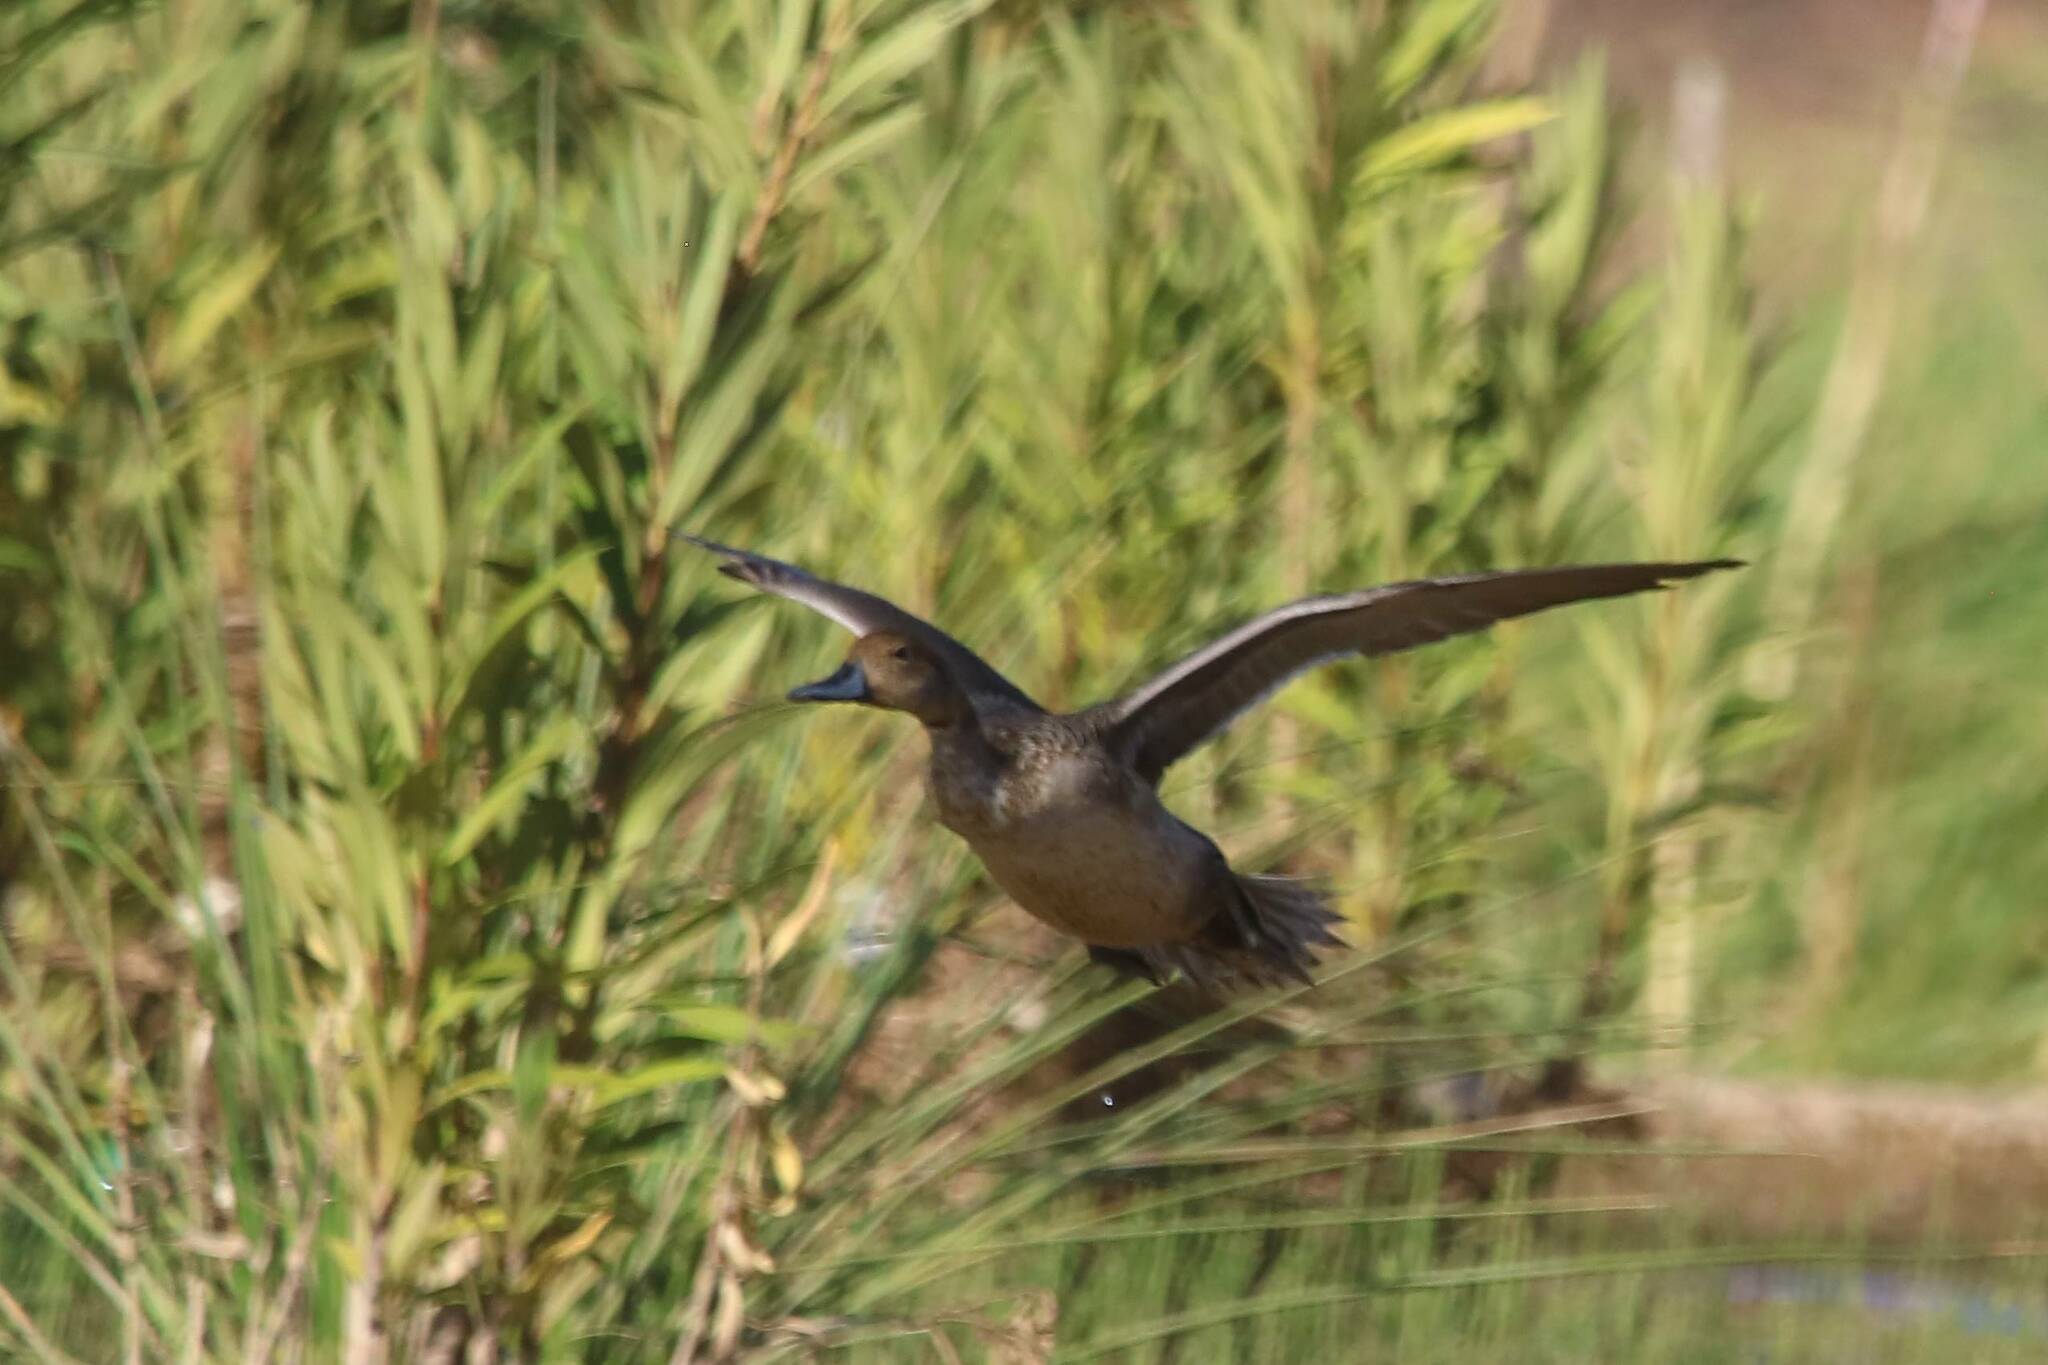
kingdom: Animalia
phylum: Chordata
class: Aves
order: Anseriformes
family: Anatidae
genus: Anas
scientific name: Anas acuta
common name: Northern pintail
